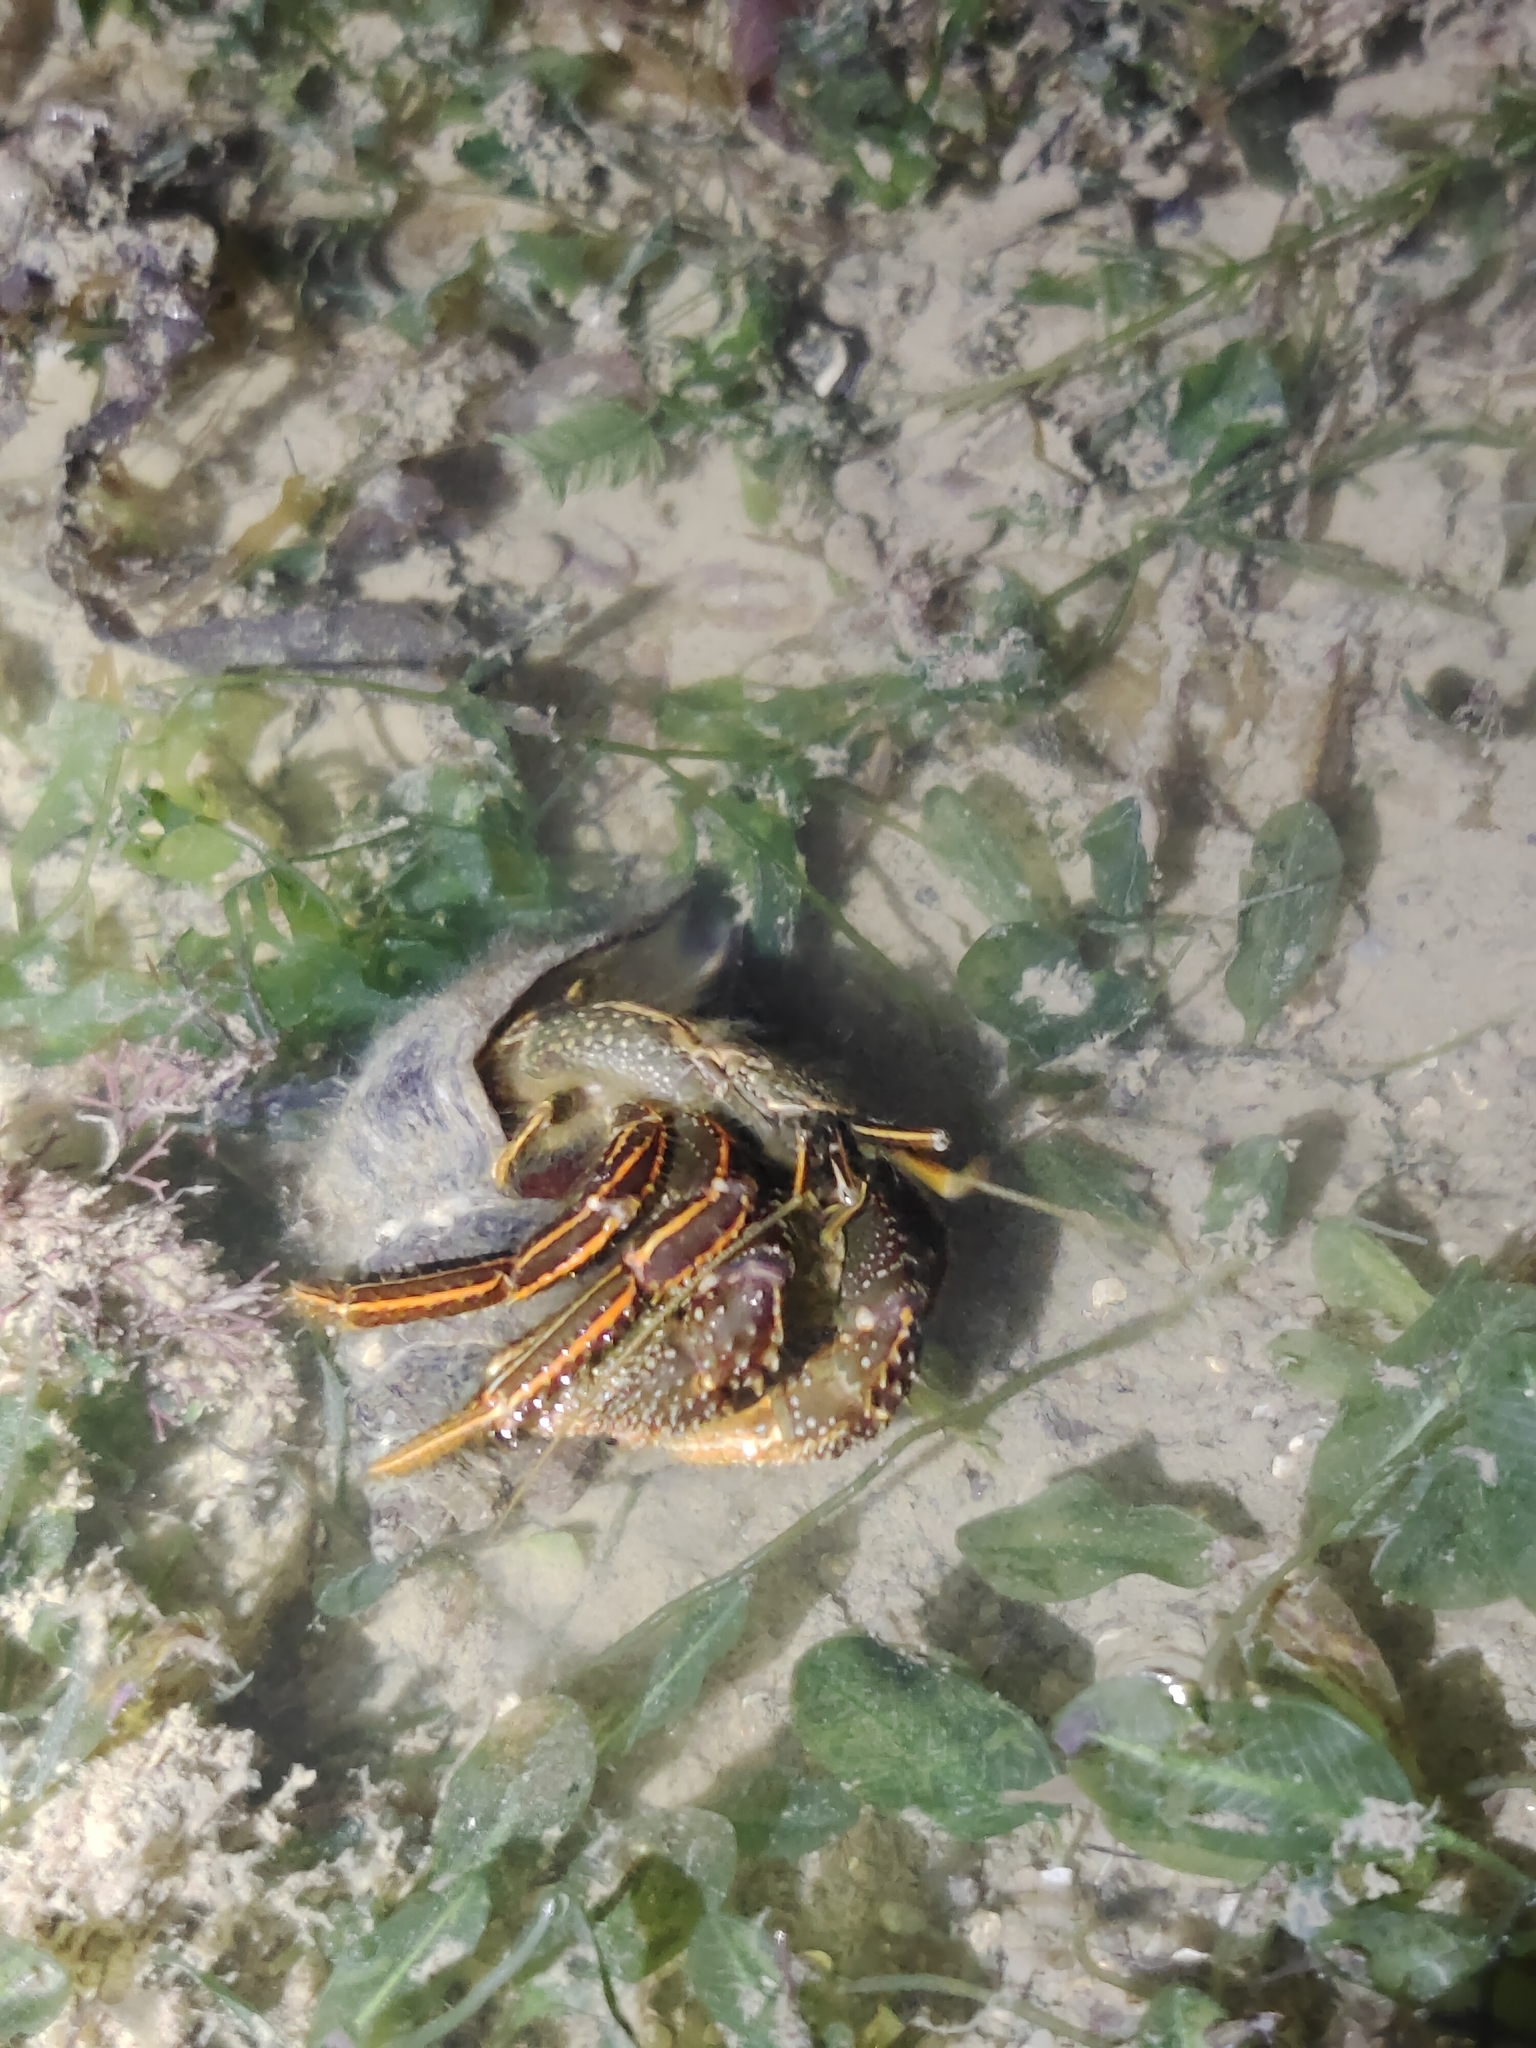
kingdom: Animalia
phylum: Arthropoda
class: Malacostraca
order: Decapoda
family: Diogenidae
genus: Clibanarius
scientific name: Clibanarius infraspinatus
